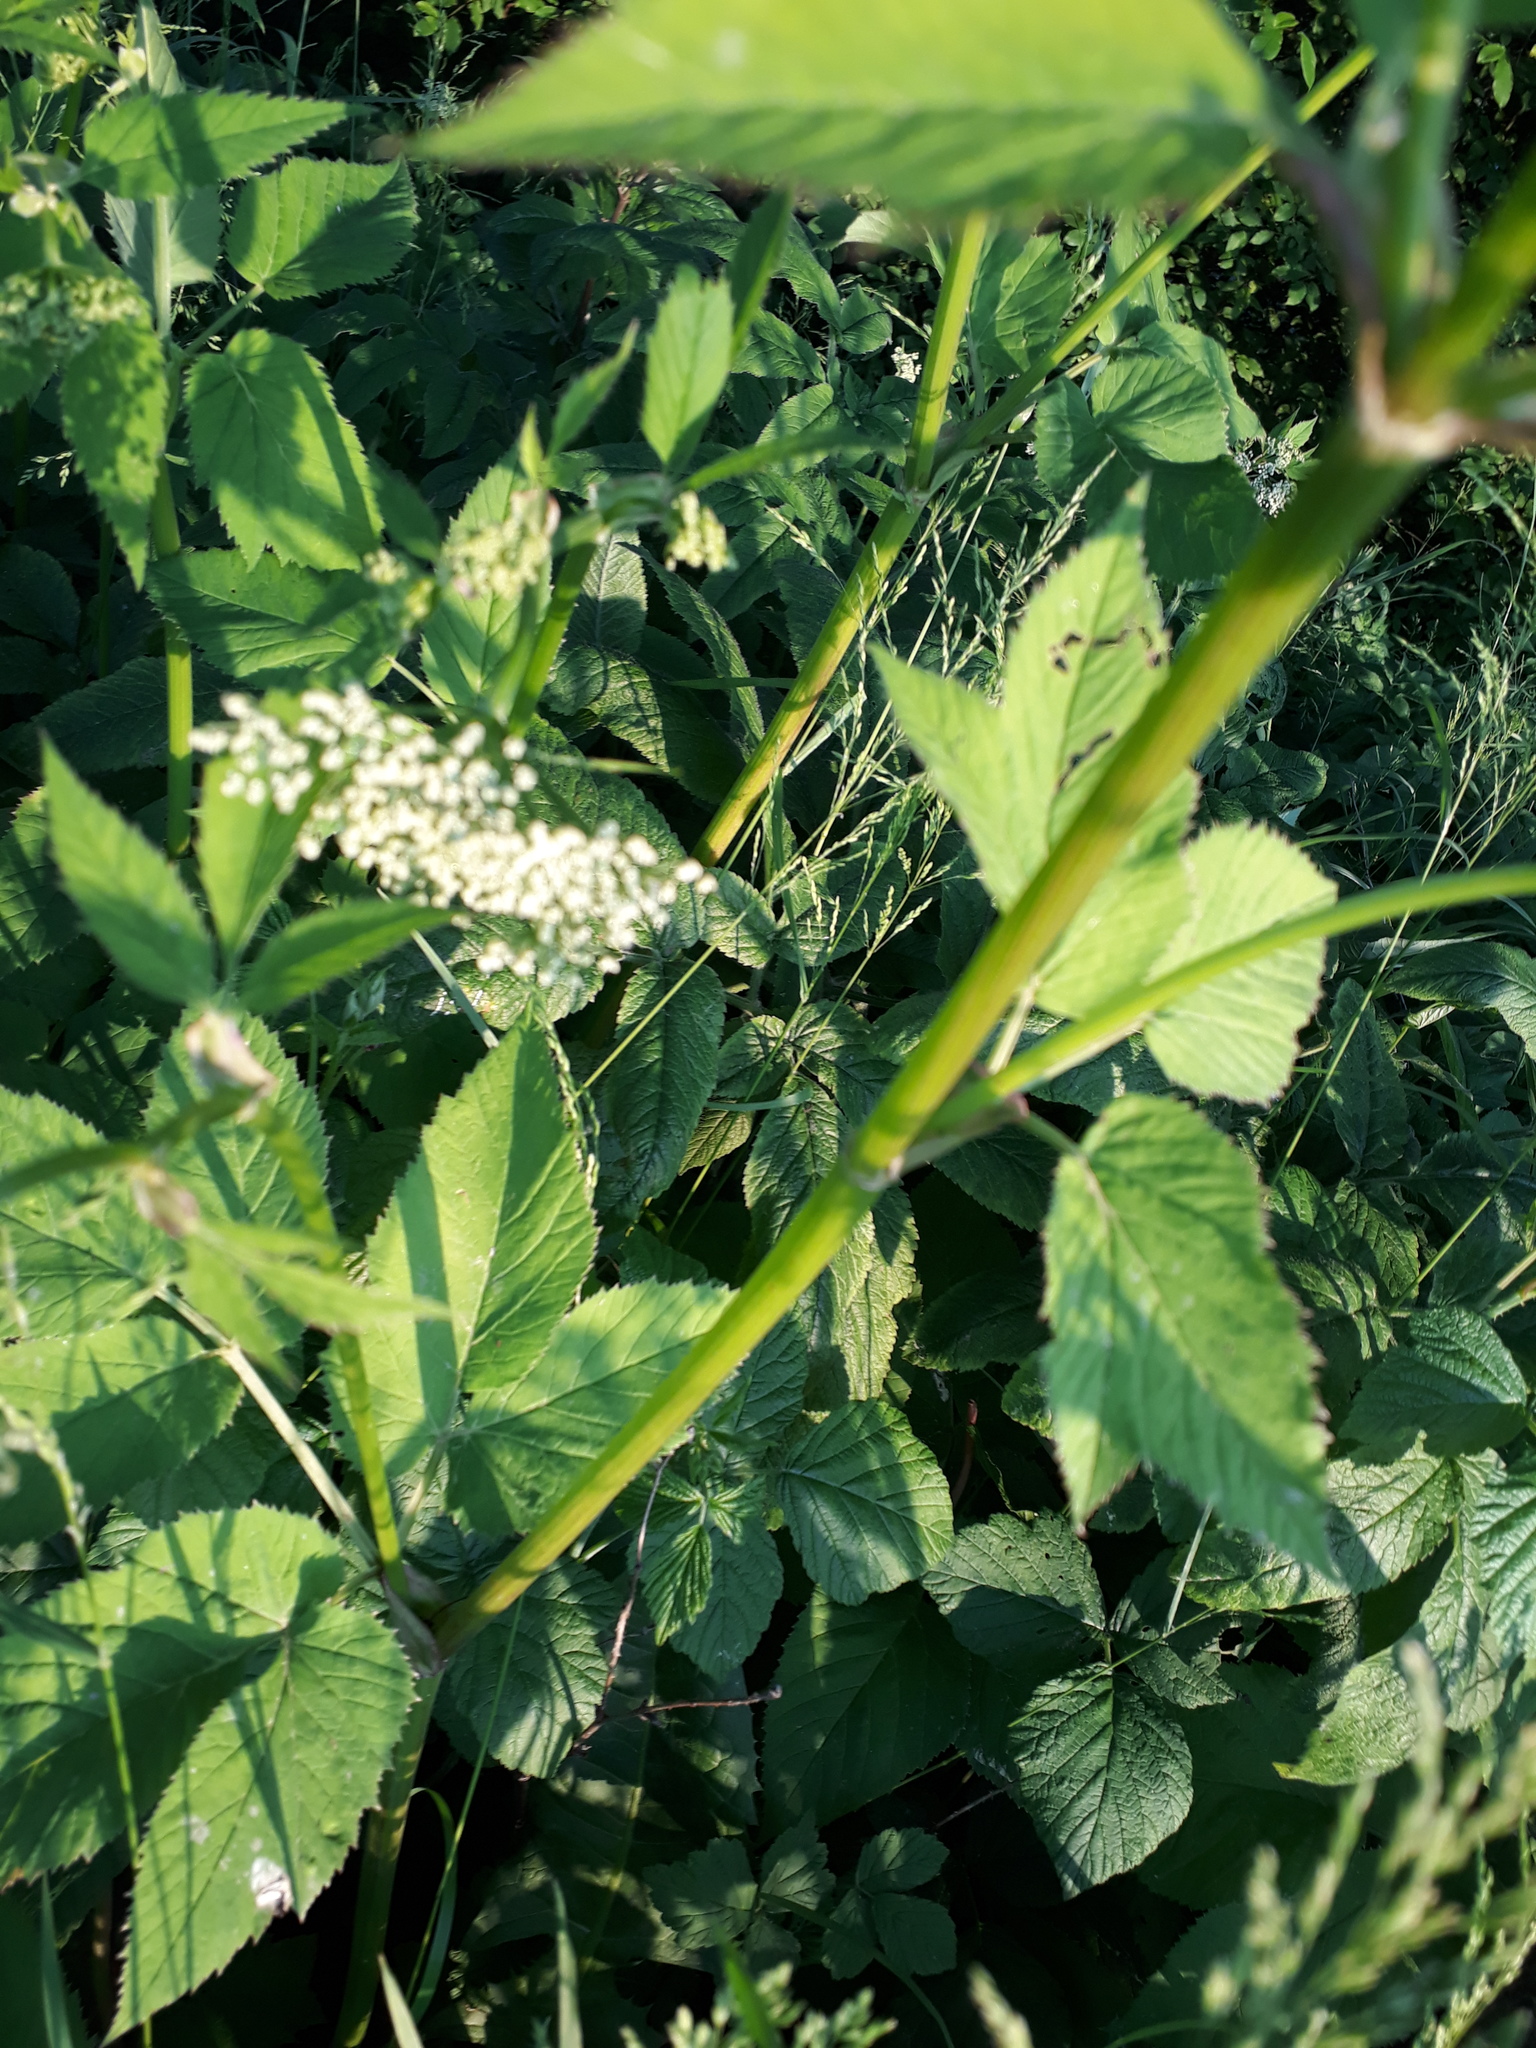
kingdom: Plantae
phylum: Tracheophyta
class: Magnoliopsida
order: Apiales
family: Apiaceae
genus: Aegopodium
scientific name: Aegopodium podagraria
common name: Ground-elder
